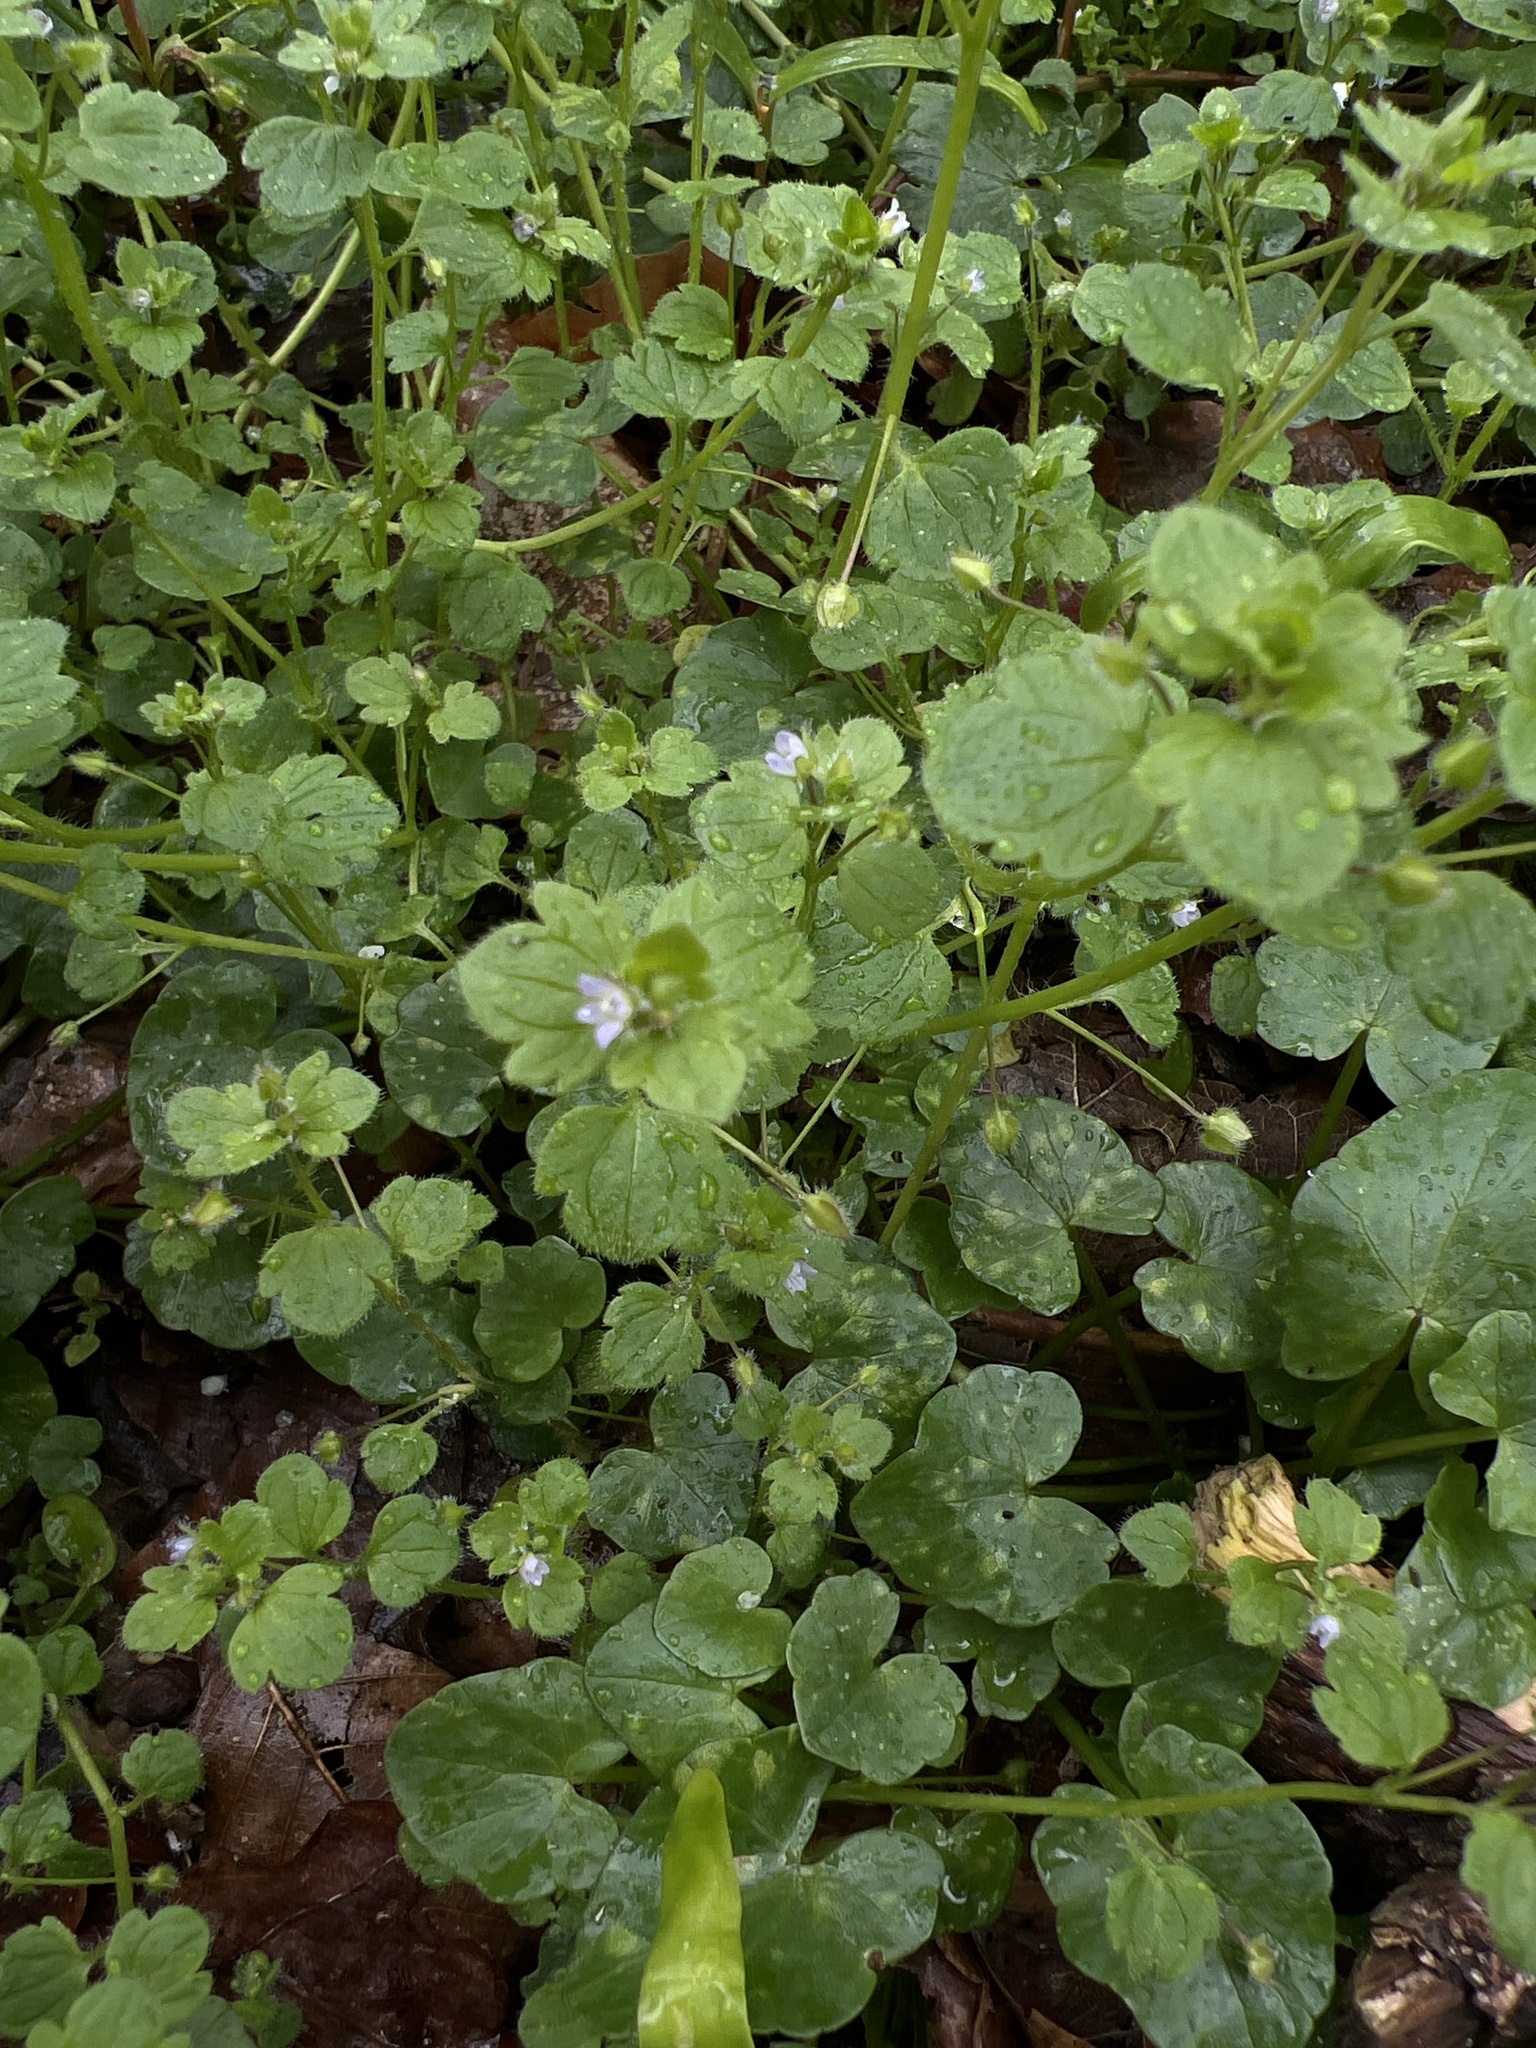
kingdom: Plantae
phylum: Tracheophyta
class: Magnoliopsida
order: Lamiales
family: Plantaginaceae
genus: Veronica
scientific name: Veronica sublobata
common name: False ivy-leaved speedwell
